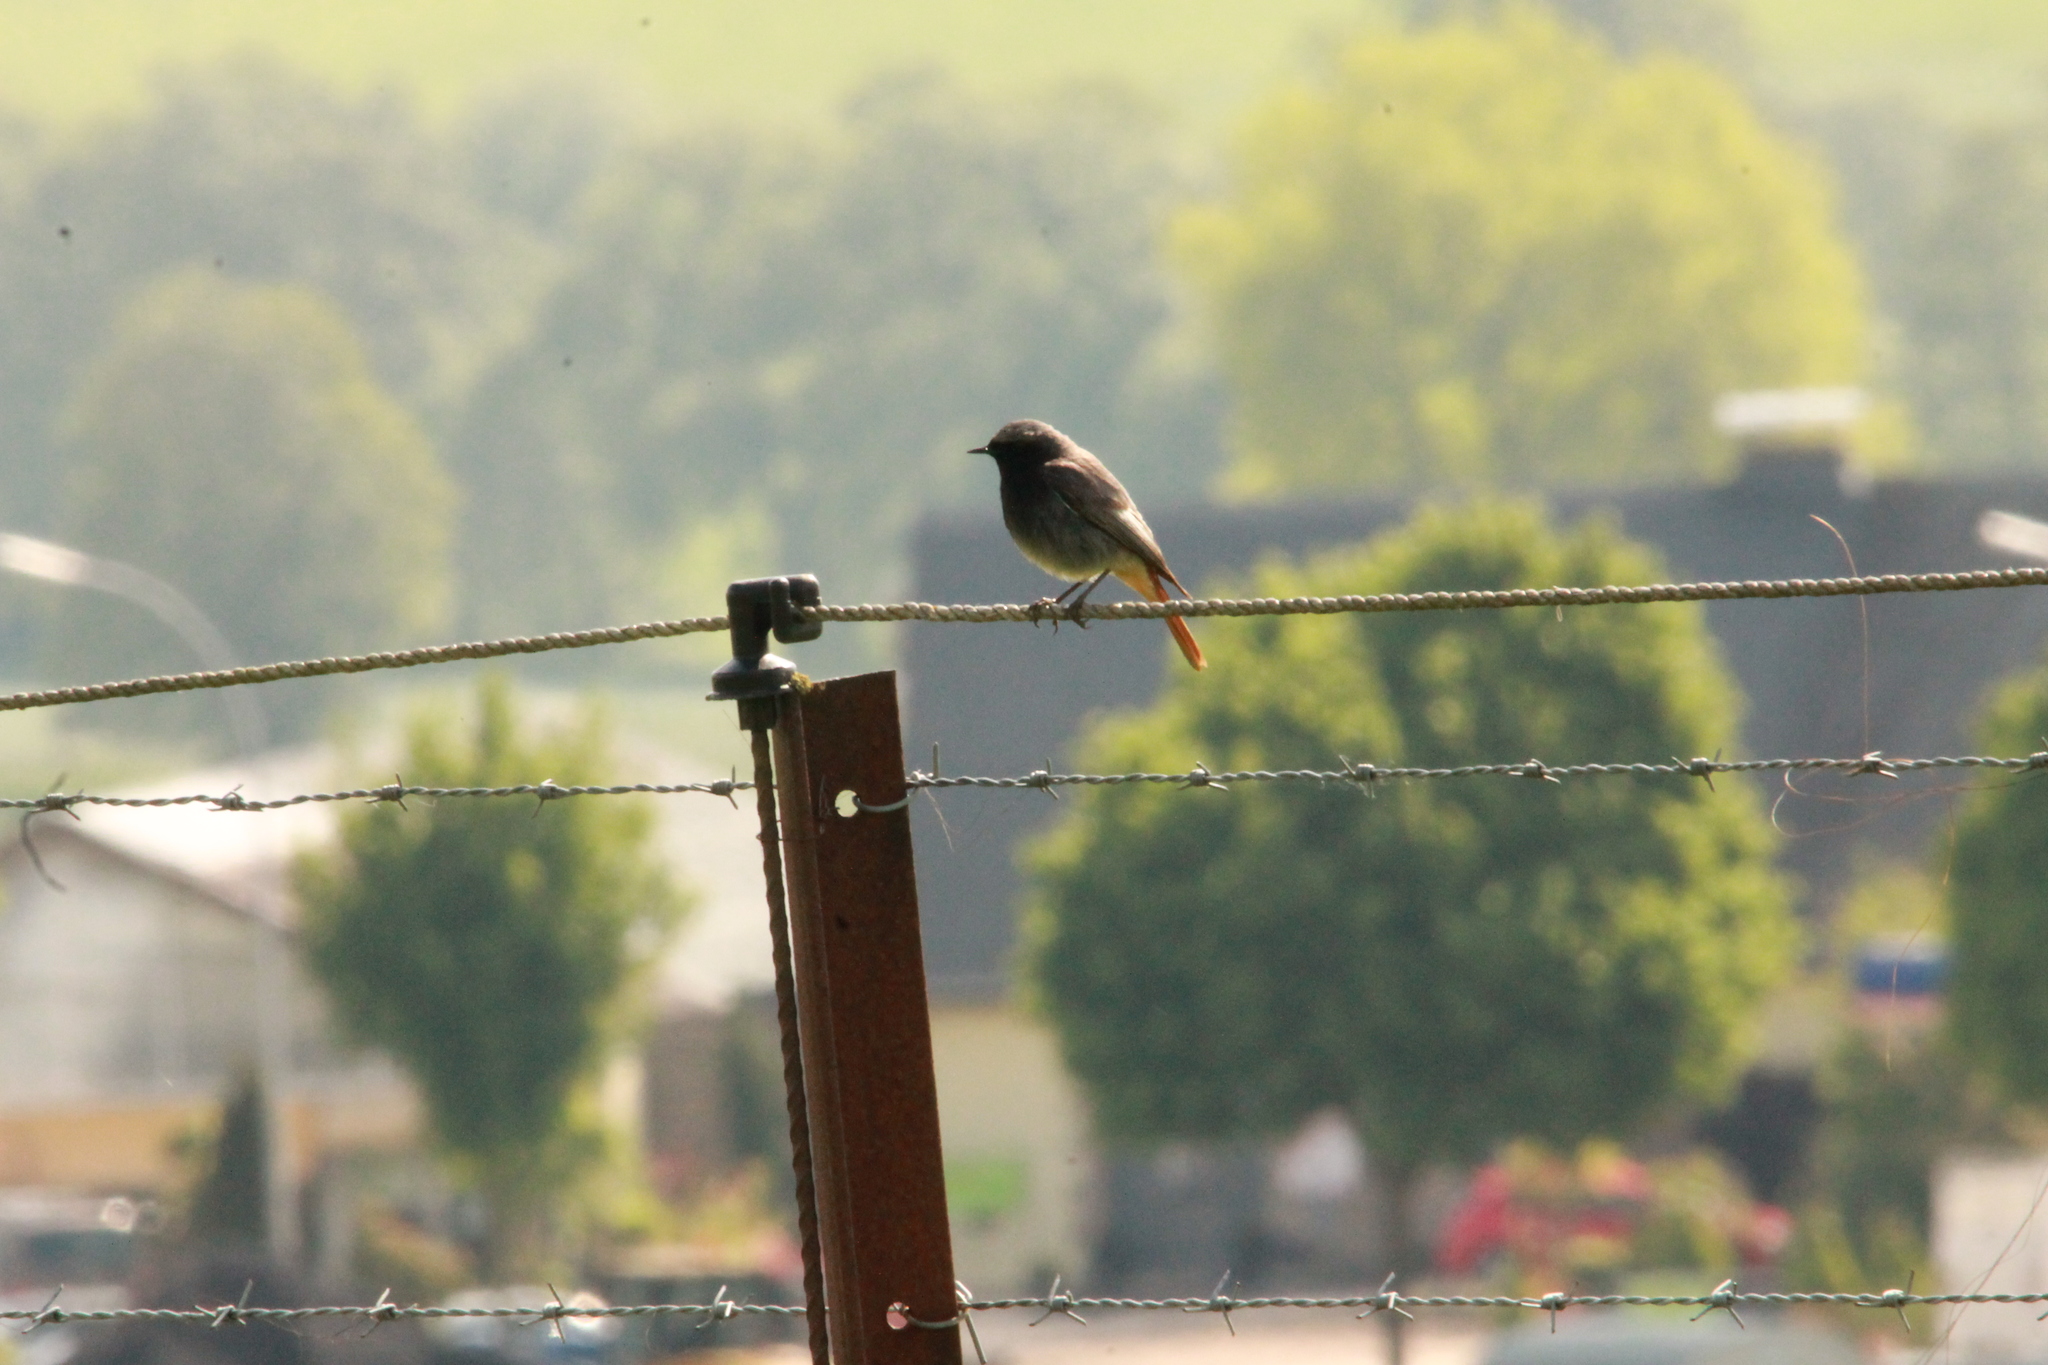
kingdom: Animalia
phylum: Chordata
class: Aves
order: Passeriformes
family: Muscicapidae
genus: Phoenicurus
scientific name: Phoenicurus ochruros
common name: Black redstart
